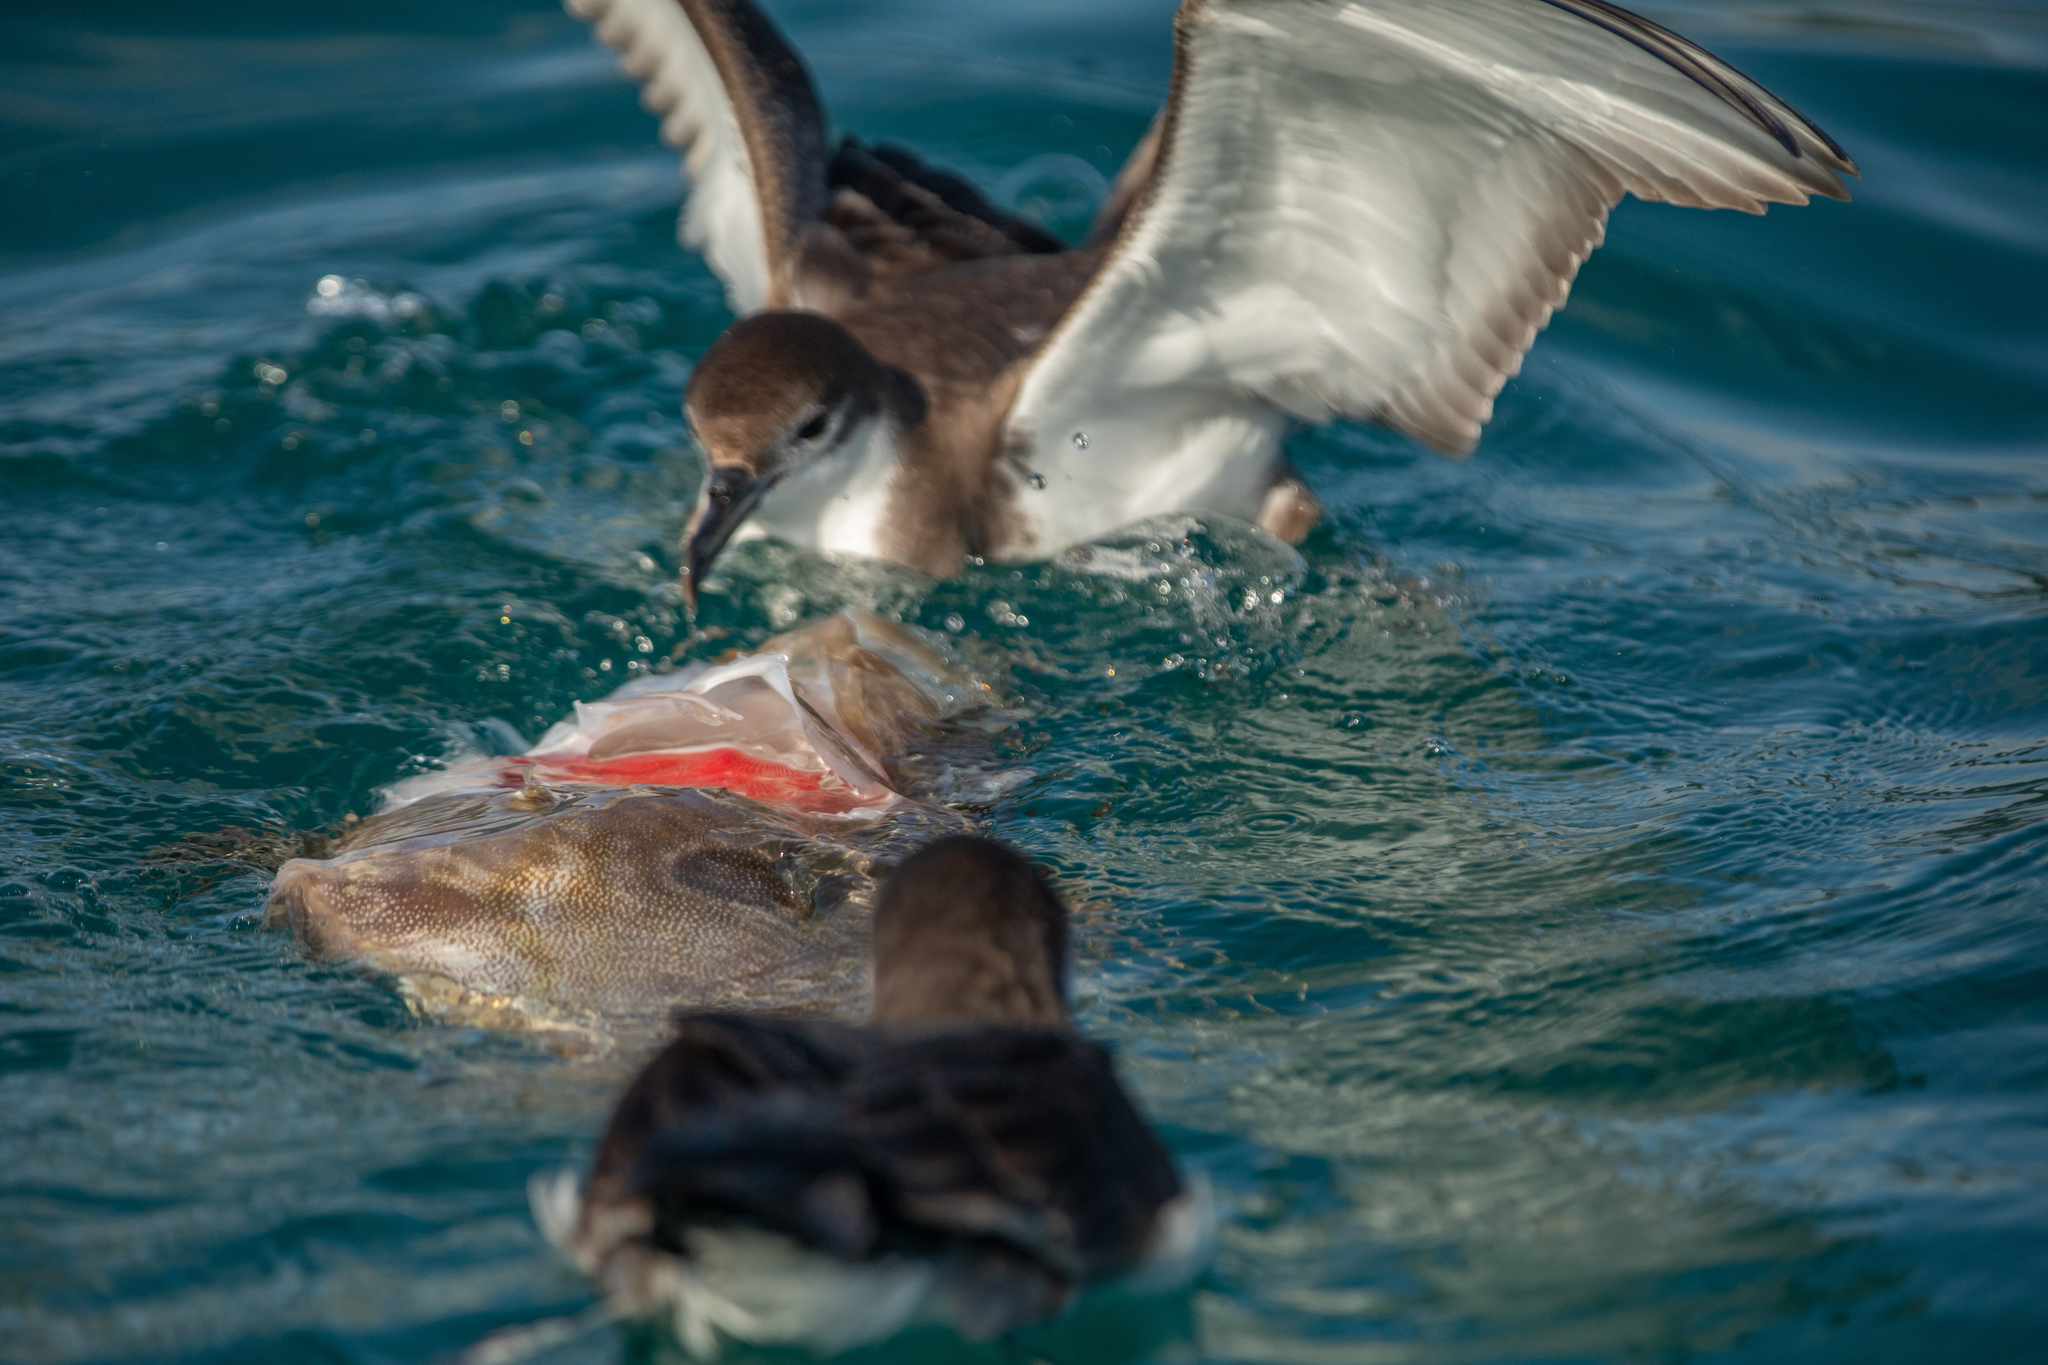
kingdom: Animalia
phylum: Chordata
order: Zeiformes
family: Zeidae
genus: Zeus
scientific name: Zeus faber
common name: John dory
